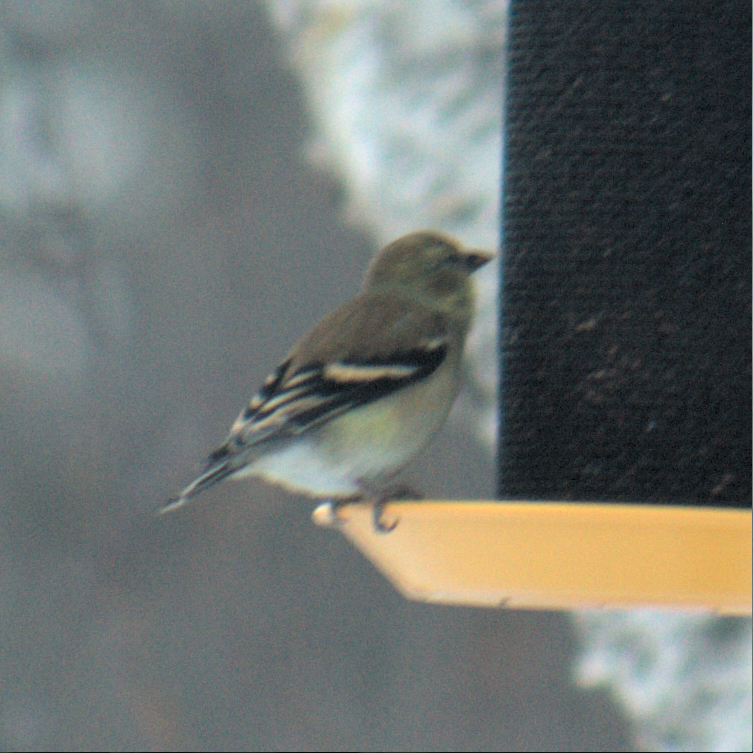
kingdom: Animalia
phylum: Chordata
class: Aves
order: Passeriformes
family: Fringillidae
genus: Spinus
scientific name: Spinus tristis
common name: American goldfinch
